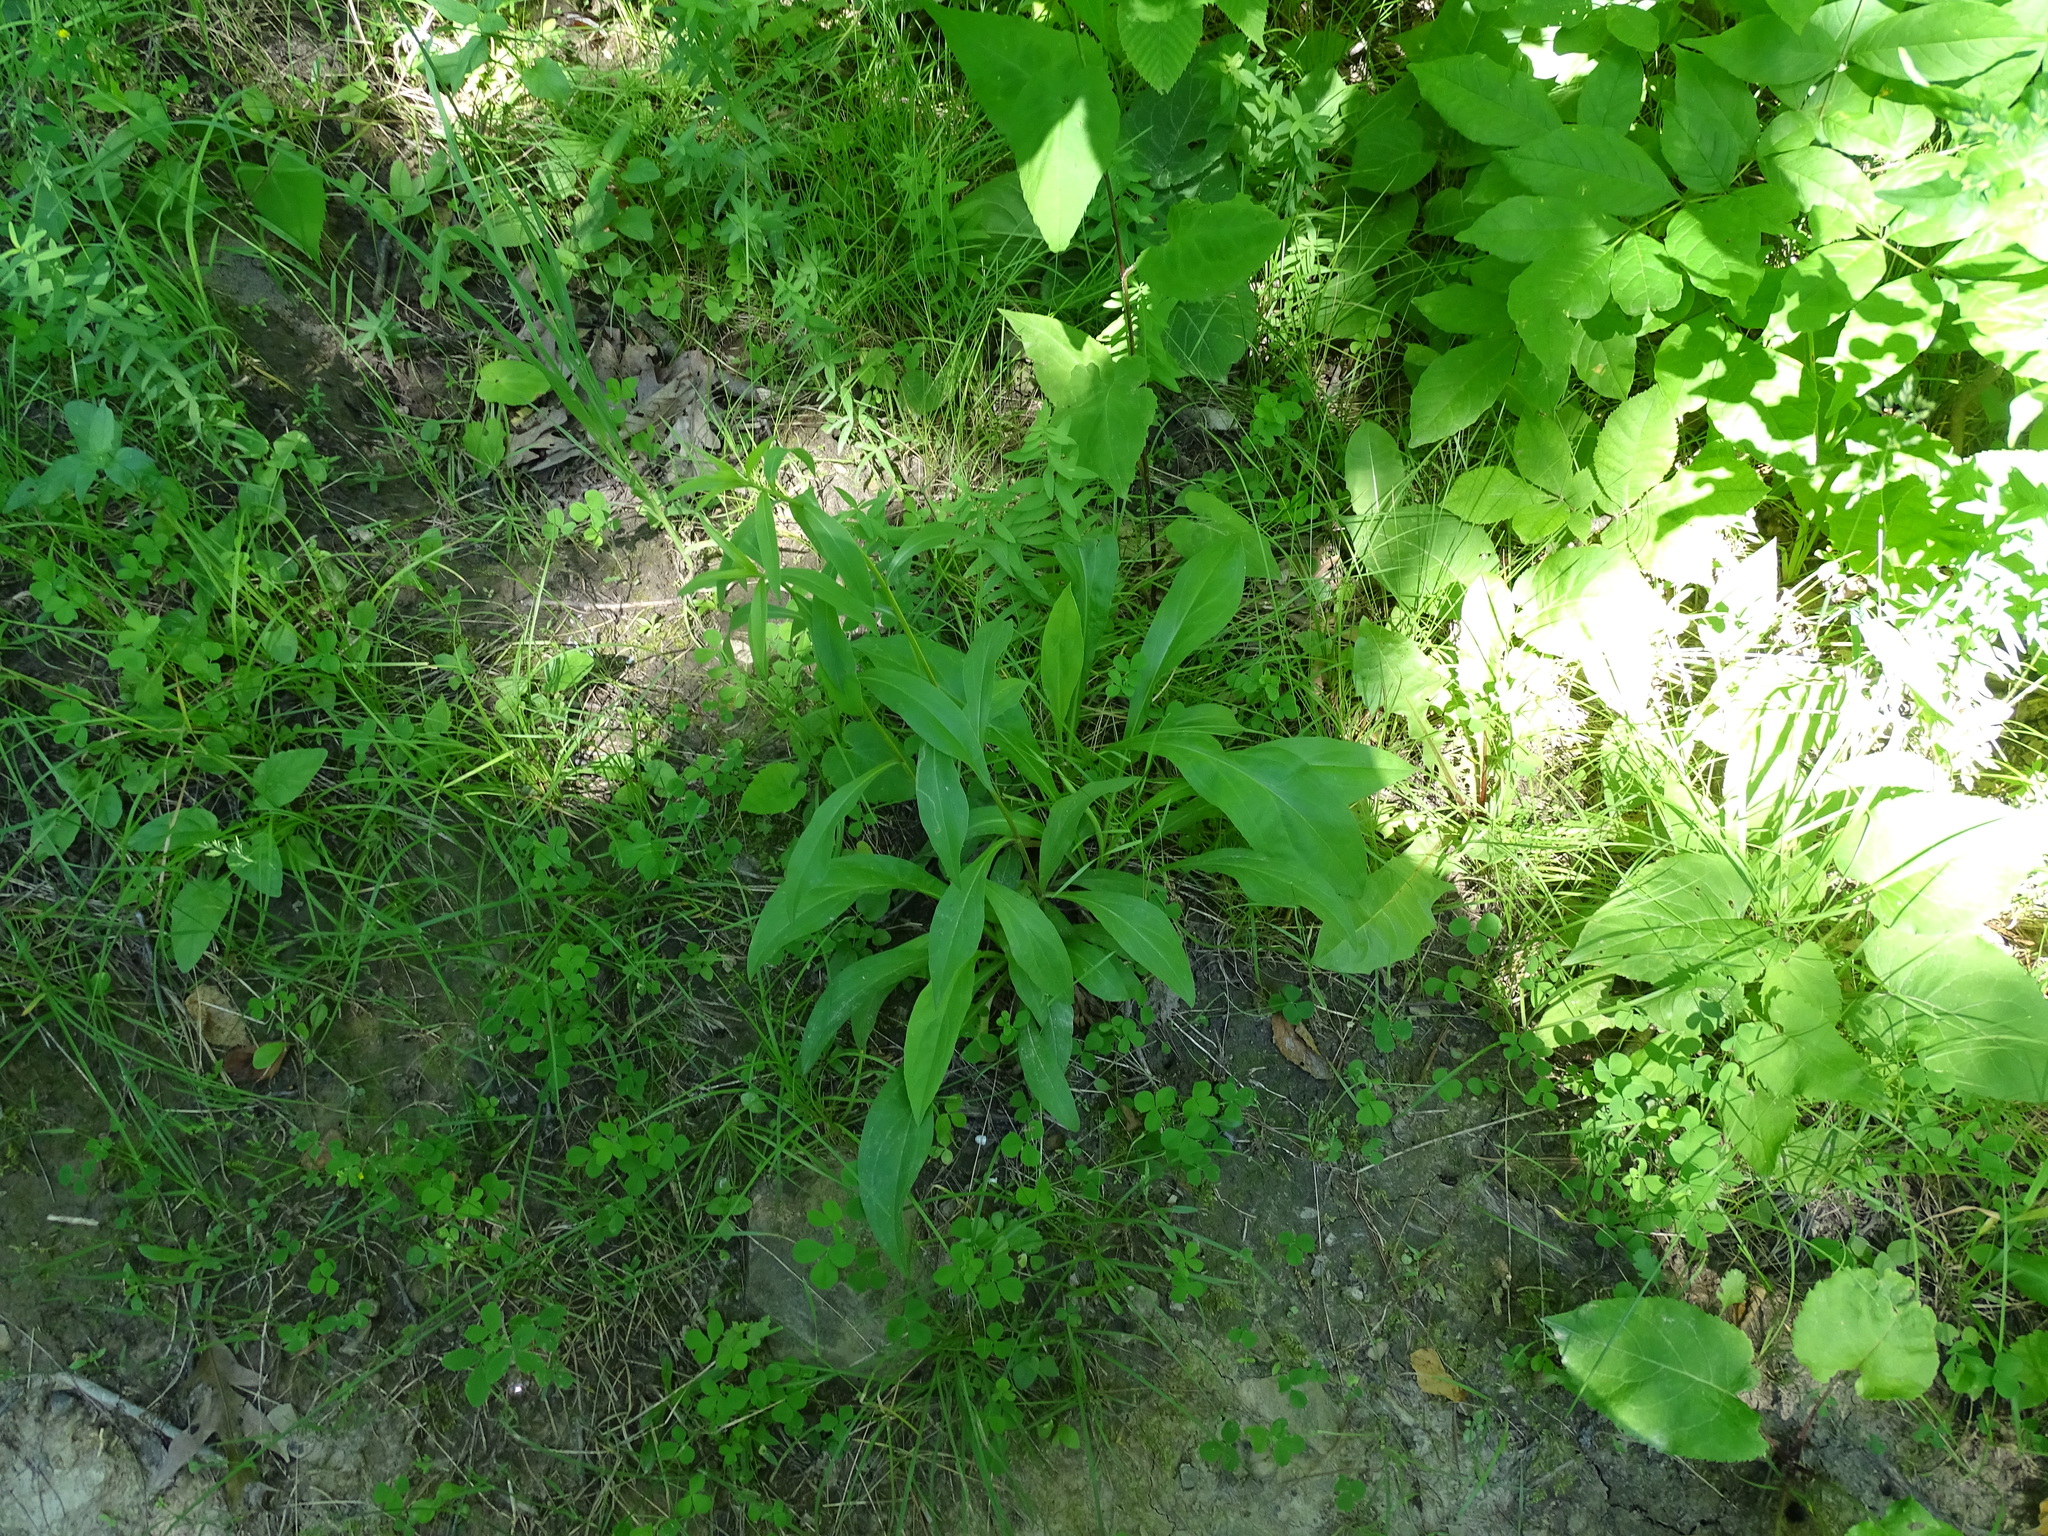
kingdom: Plantae
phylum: Tracheophyta
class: Magnoliopsida
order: Asterales
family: Asteraceae
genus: Solidago
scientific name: Solidago juncea
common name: Early goldenrod
